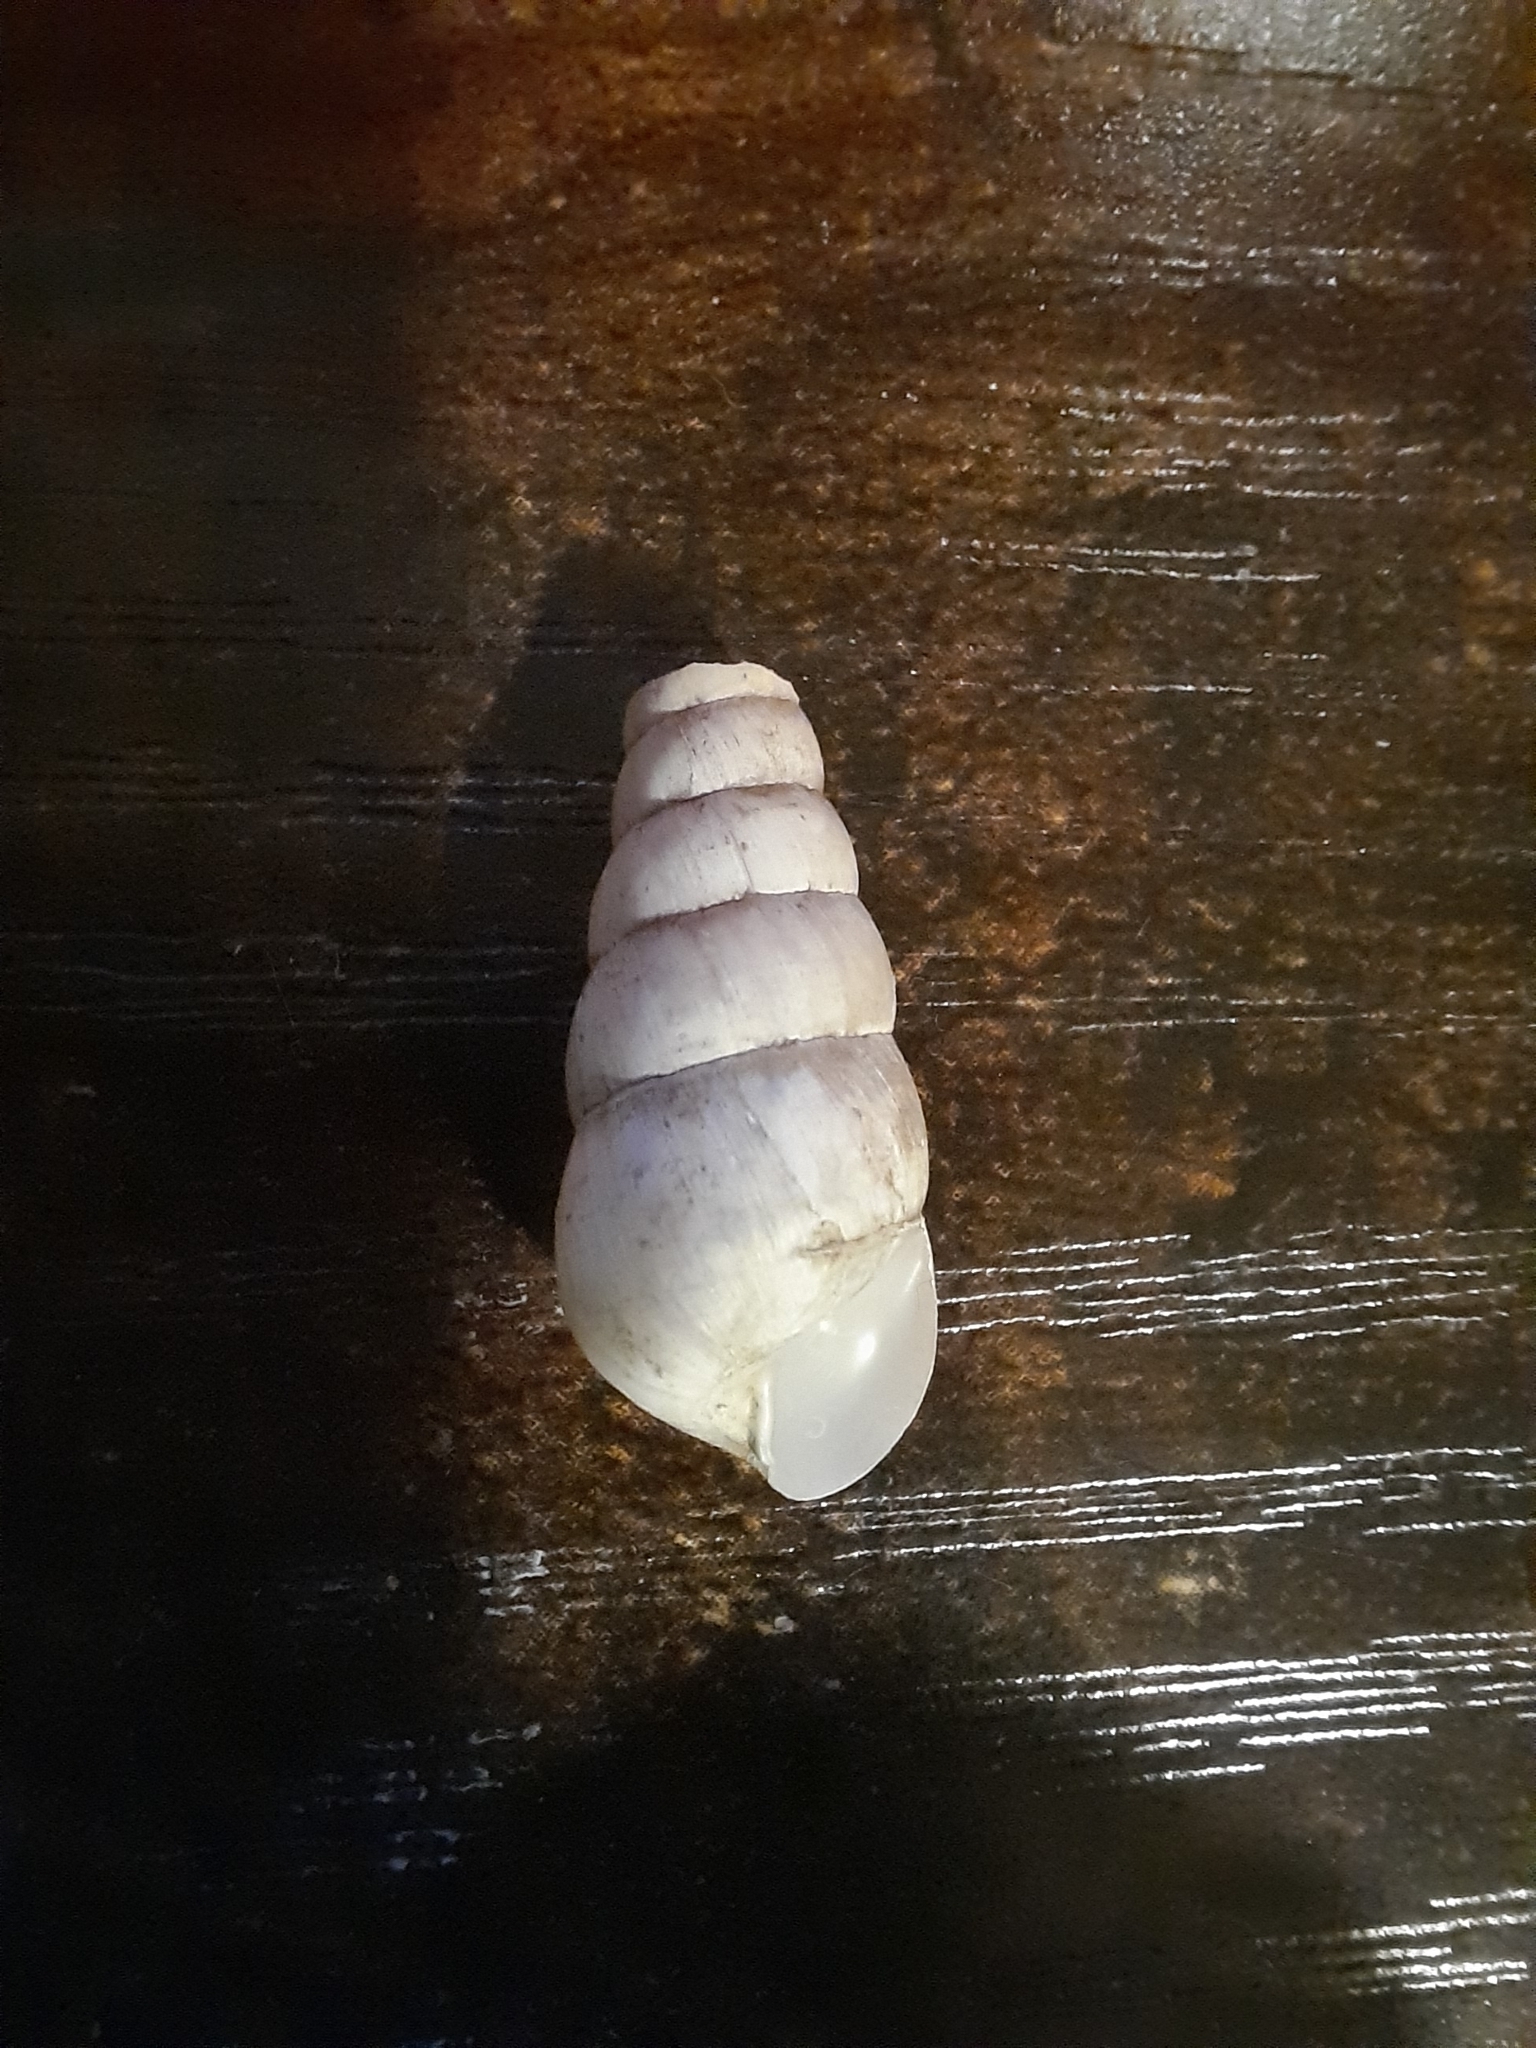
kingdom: Animalia
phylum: Mollusca
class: Gastropoda
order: Stylommatophora
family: Achatinidae
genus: Rumina
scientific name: Rumina decollata
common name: Decollate snail
